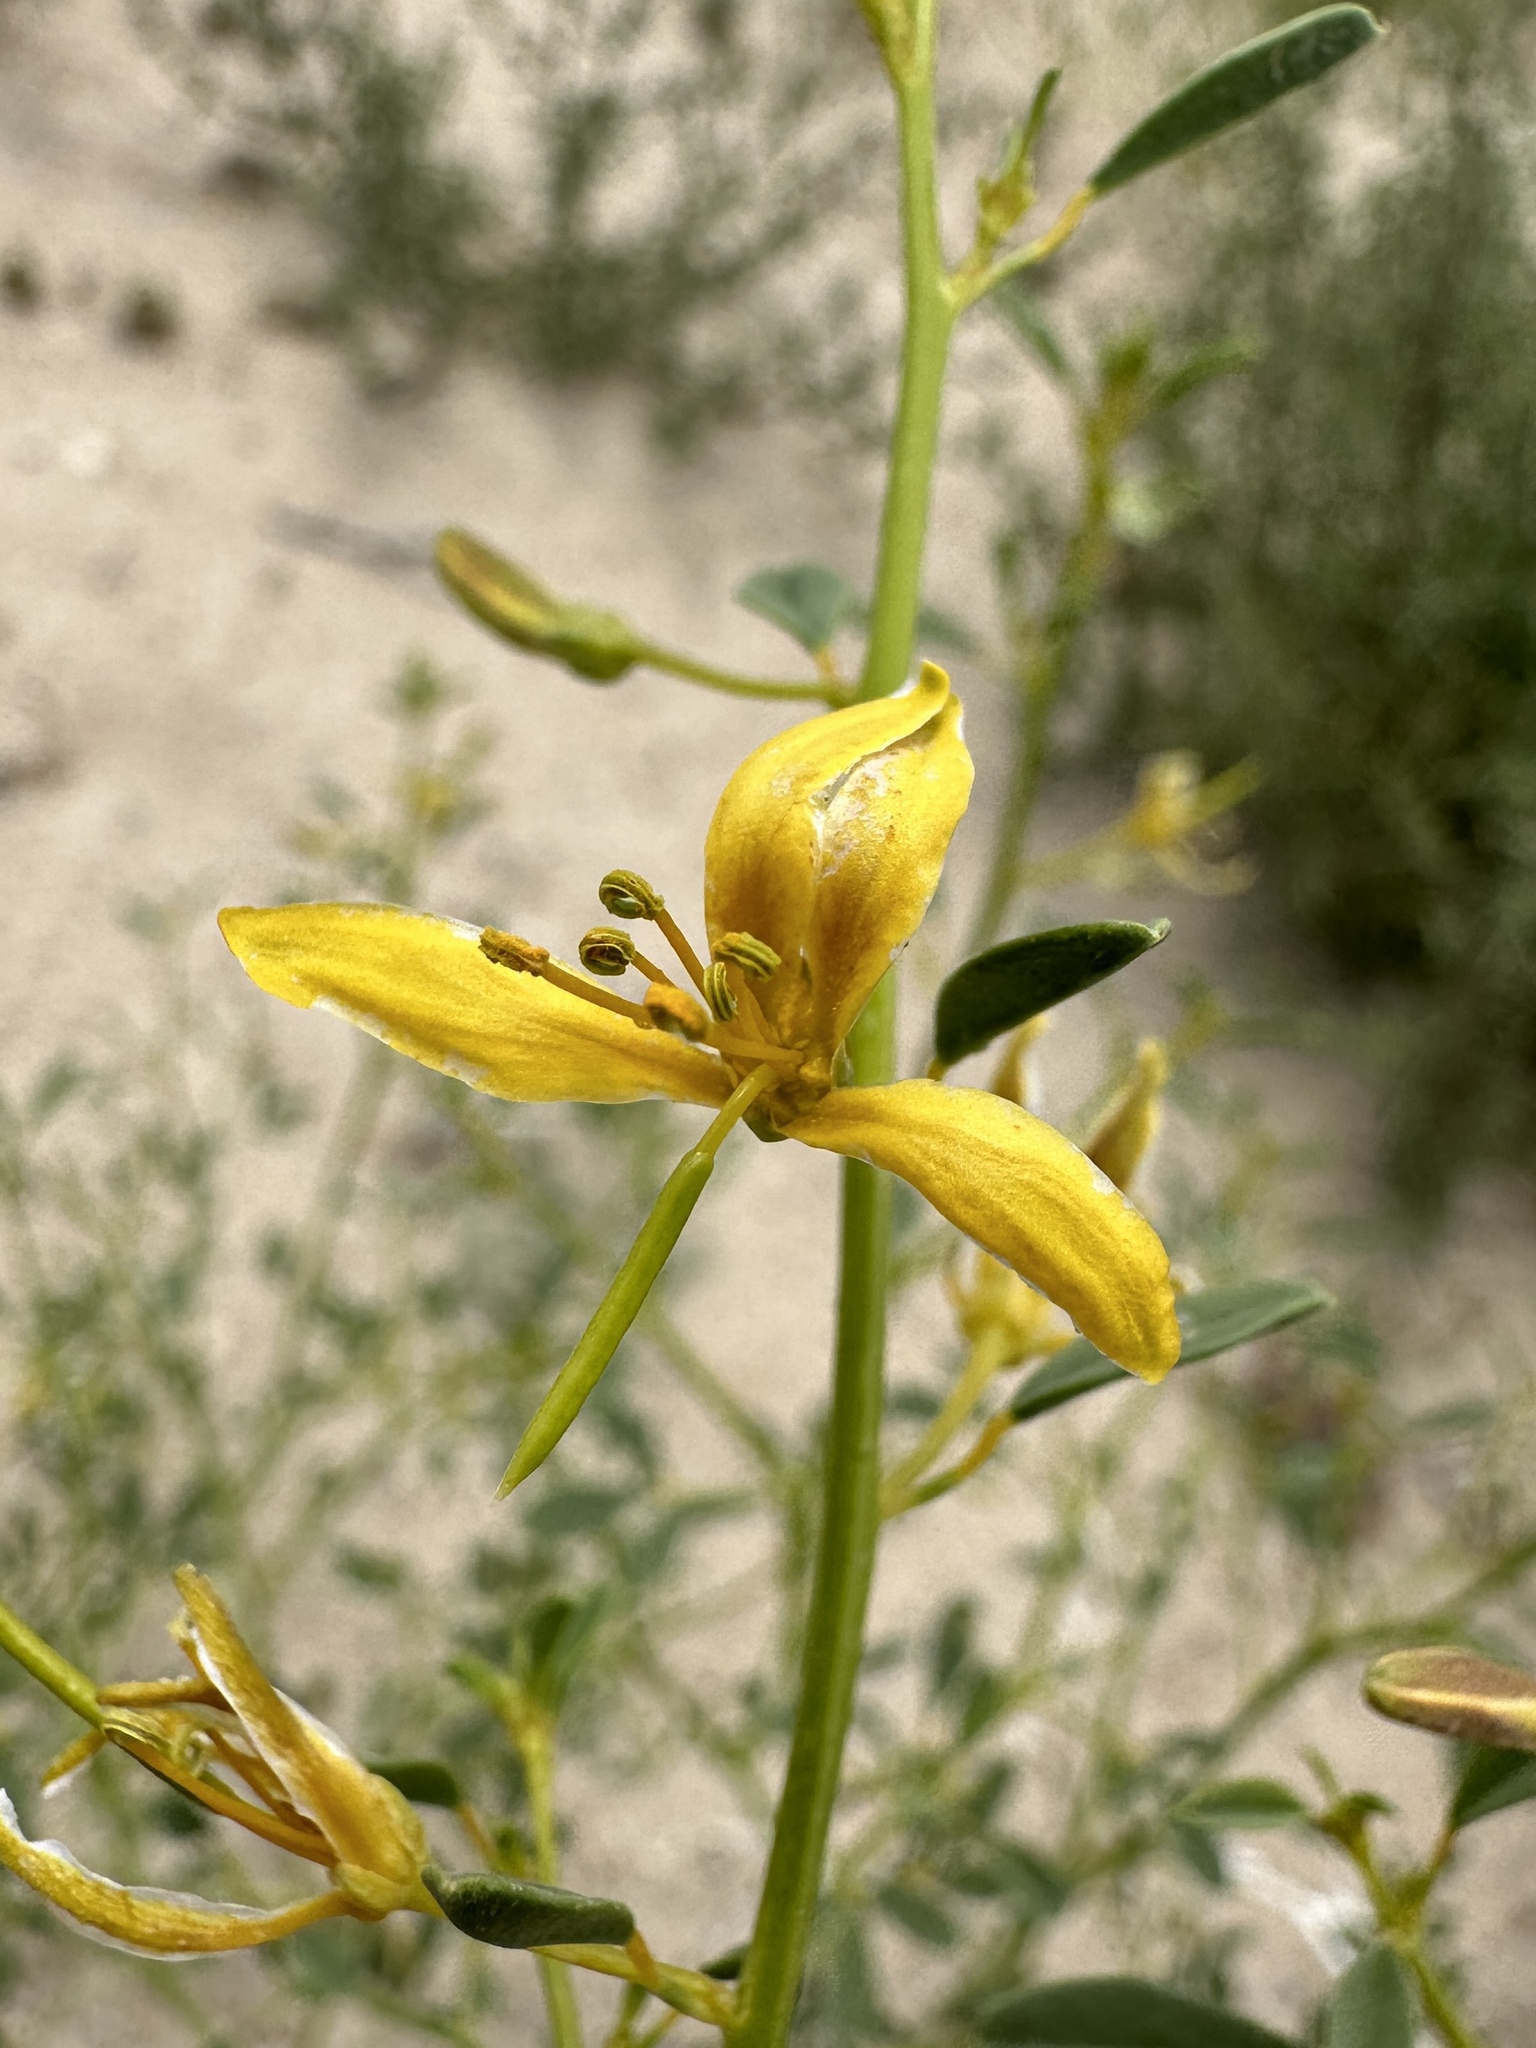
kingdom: Plantae
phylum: Tracheophyta
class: Magnoliopsida
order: Brassicales
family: Cleomaceae
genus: Cleomella
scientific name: Cleomella sparsifolia
